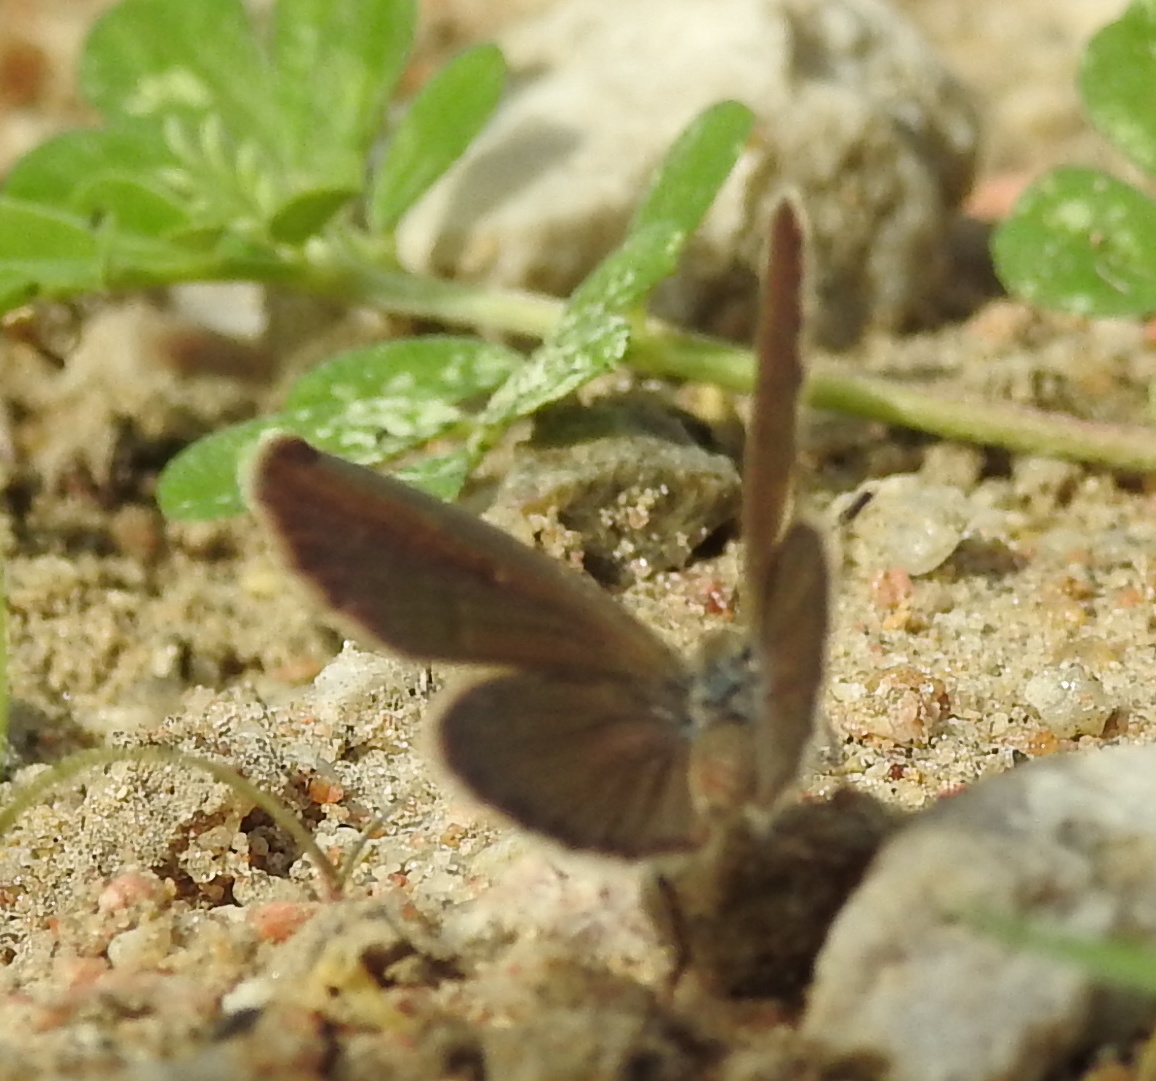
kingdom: Animalia
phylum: Arthropoda
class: Insecta
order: Lepidoptera
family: Lycaenidae
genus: Zizeeria
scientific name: Zizeeria karsandra
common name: Dark grass blue
